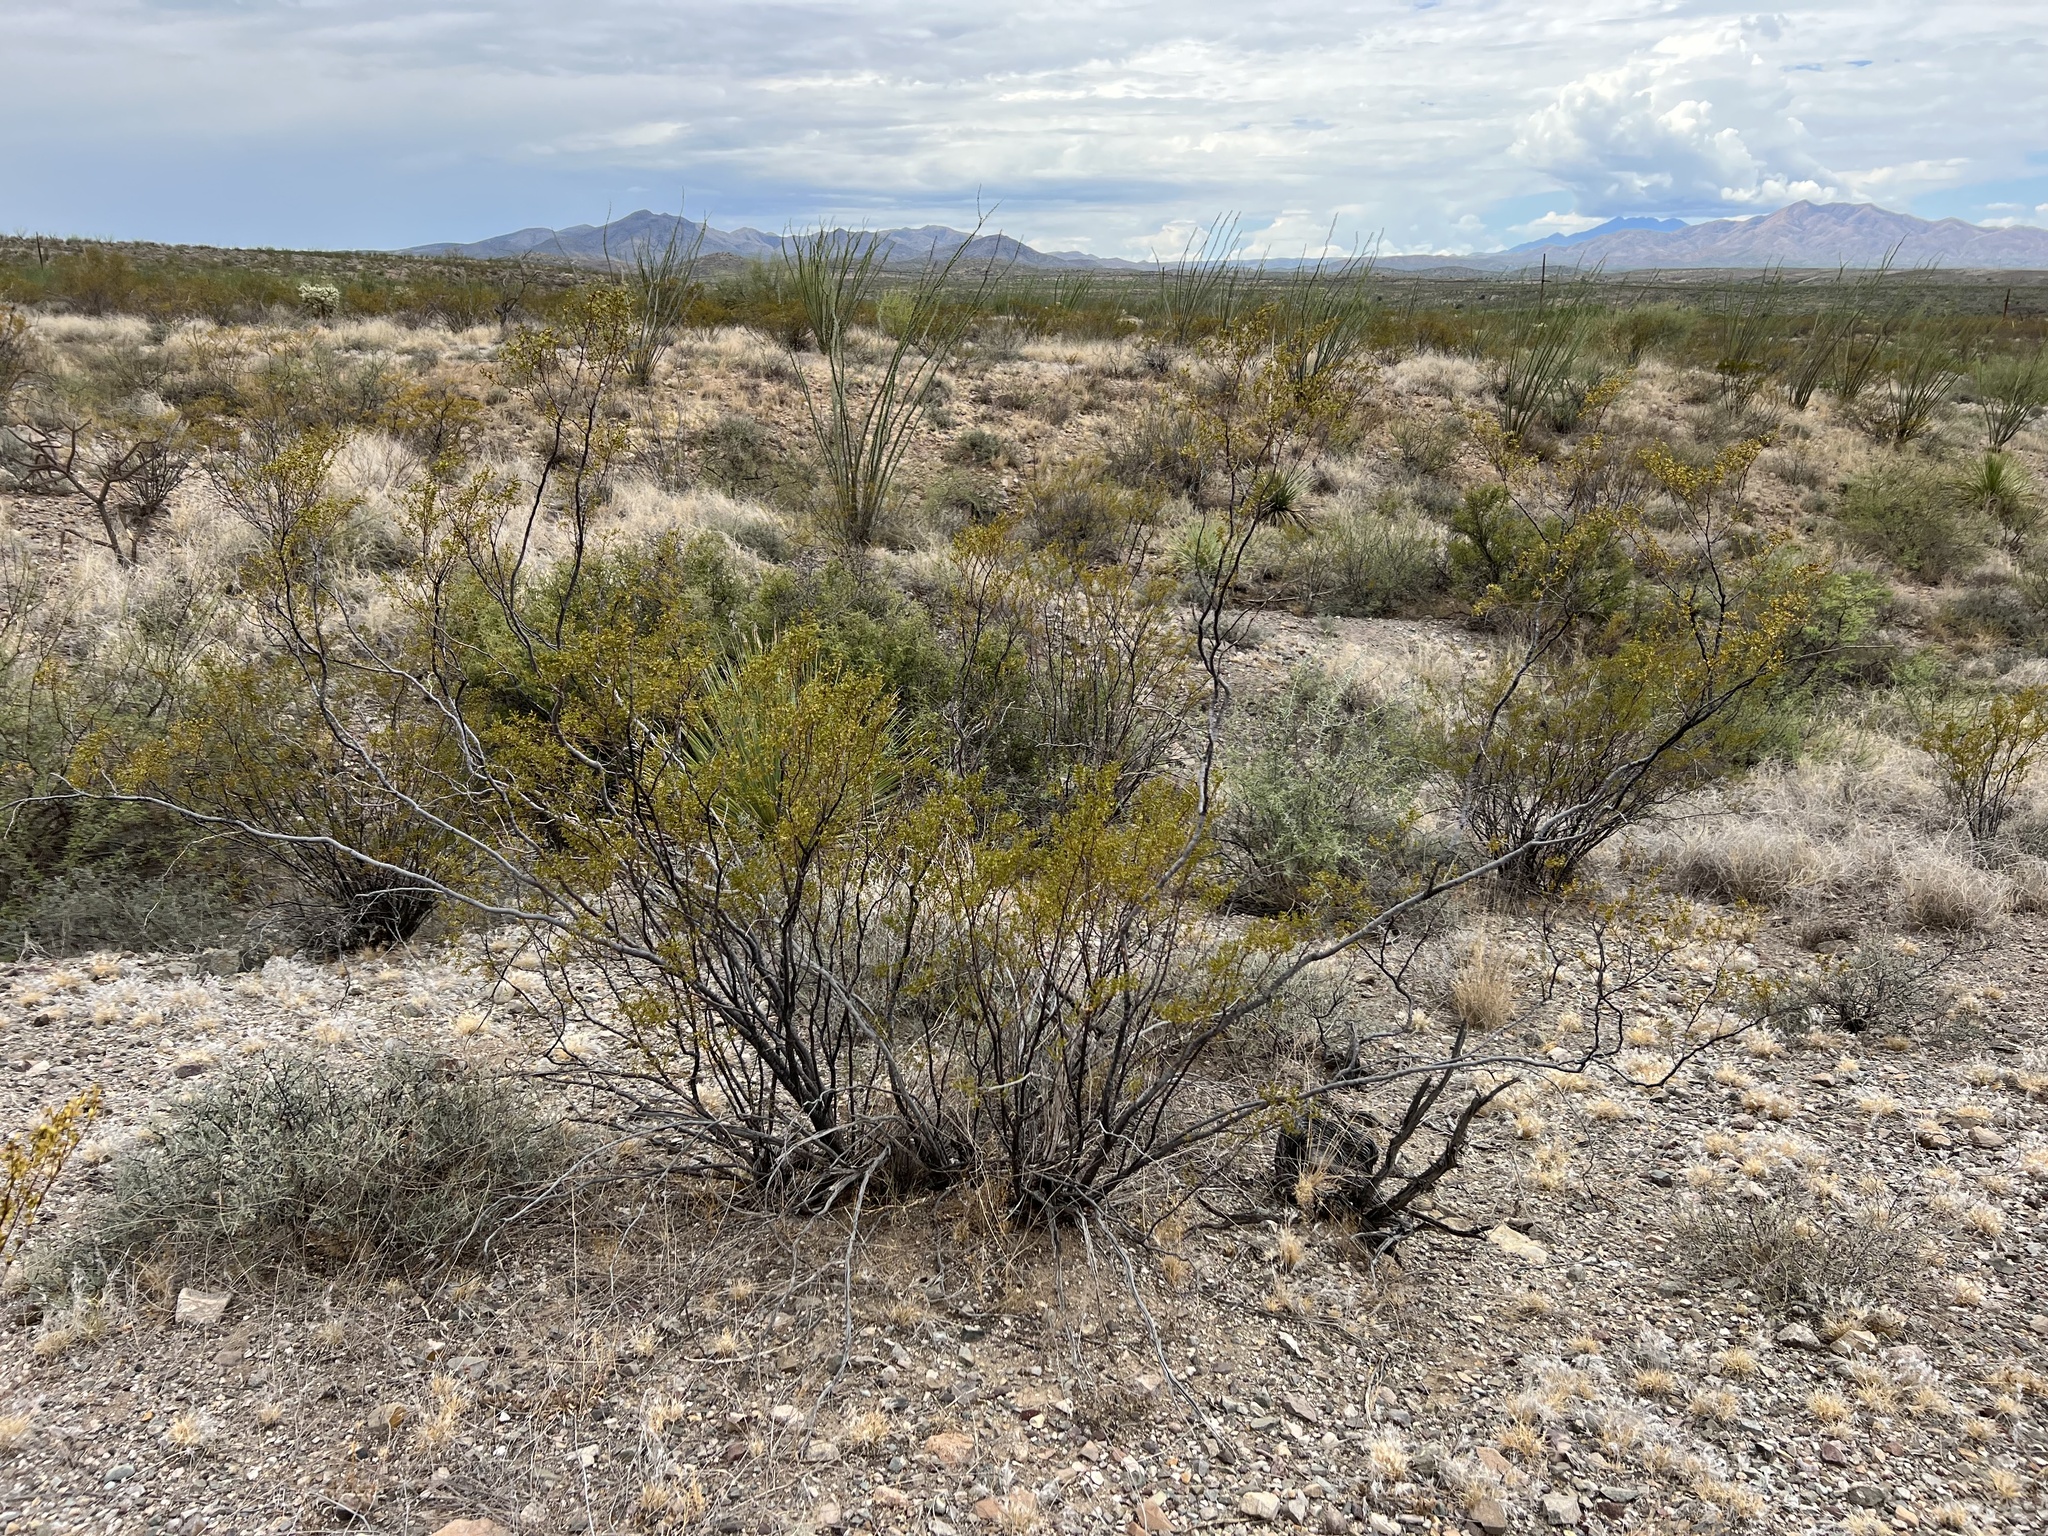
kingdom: Plantae
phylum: Tracheophyta
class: Magnoliopsida
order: Zygophyllales
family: Zygophyllaceae
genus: Larrea
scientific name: Larrea tridentata
